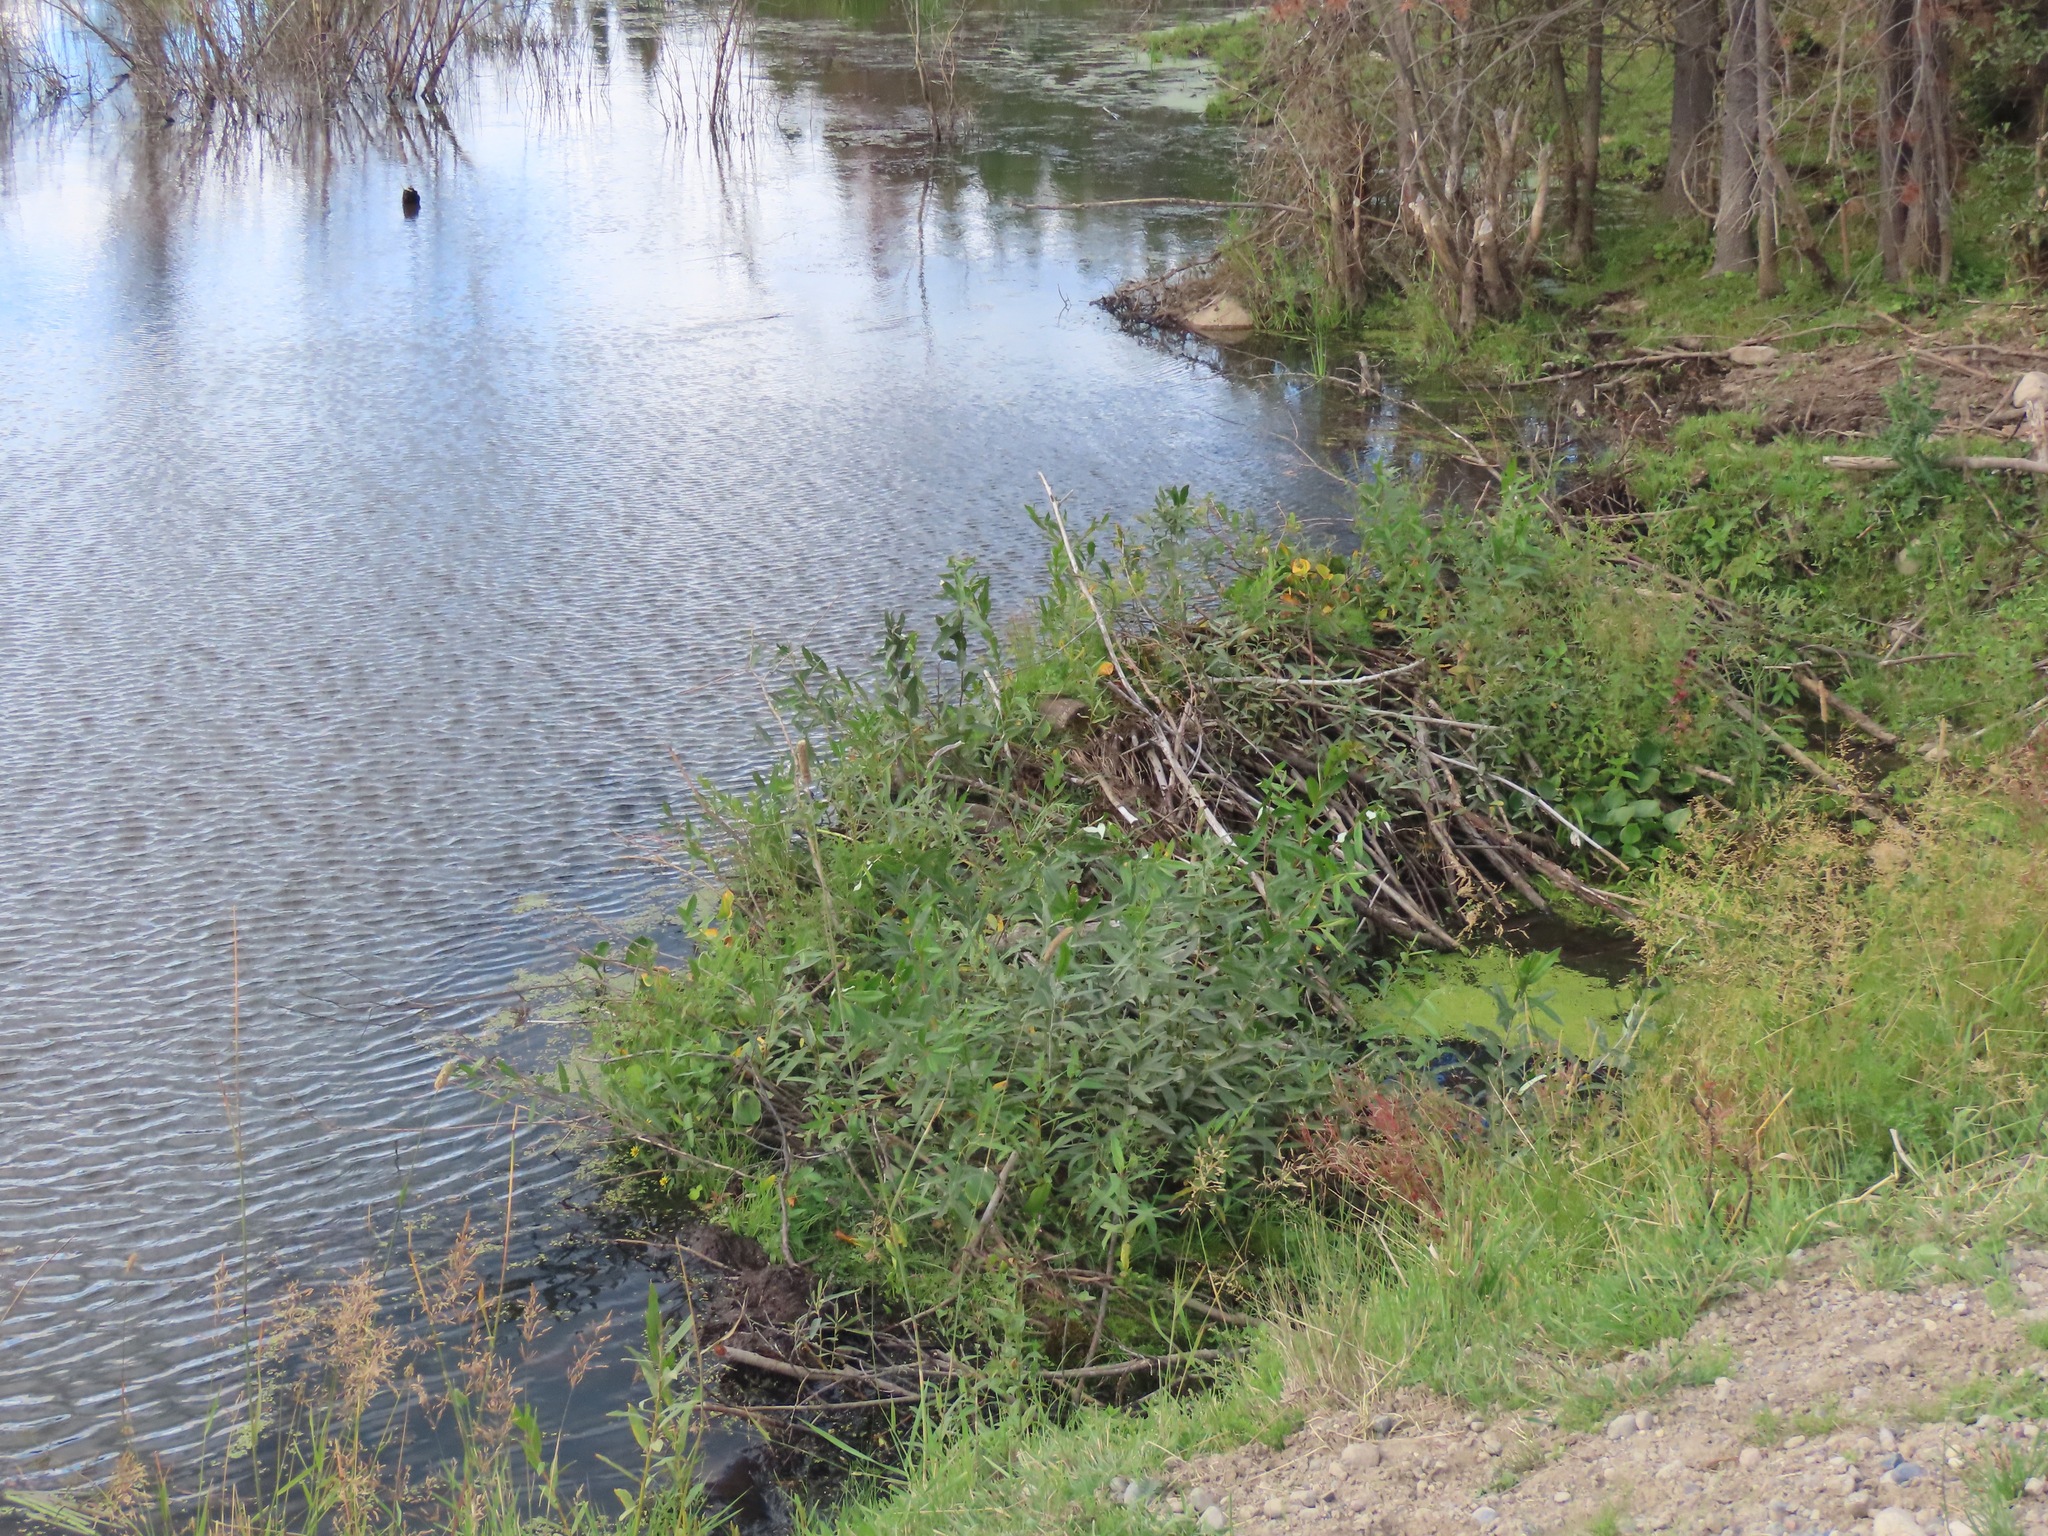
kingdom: Animalia
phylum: Chordata
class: Mammalia
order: Rodentia
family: Castoridae
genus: Castor
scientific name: Castor canadensis
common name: American beaver
